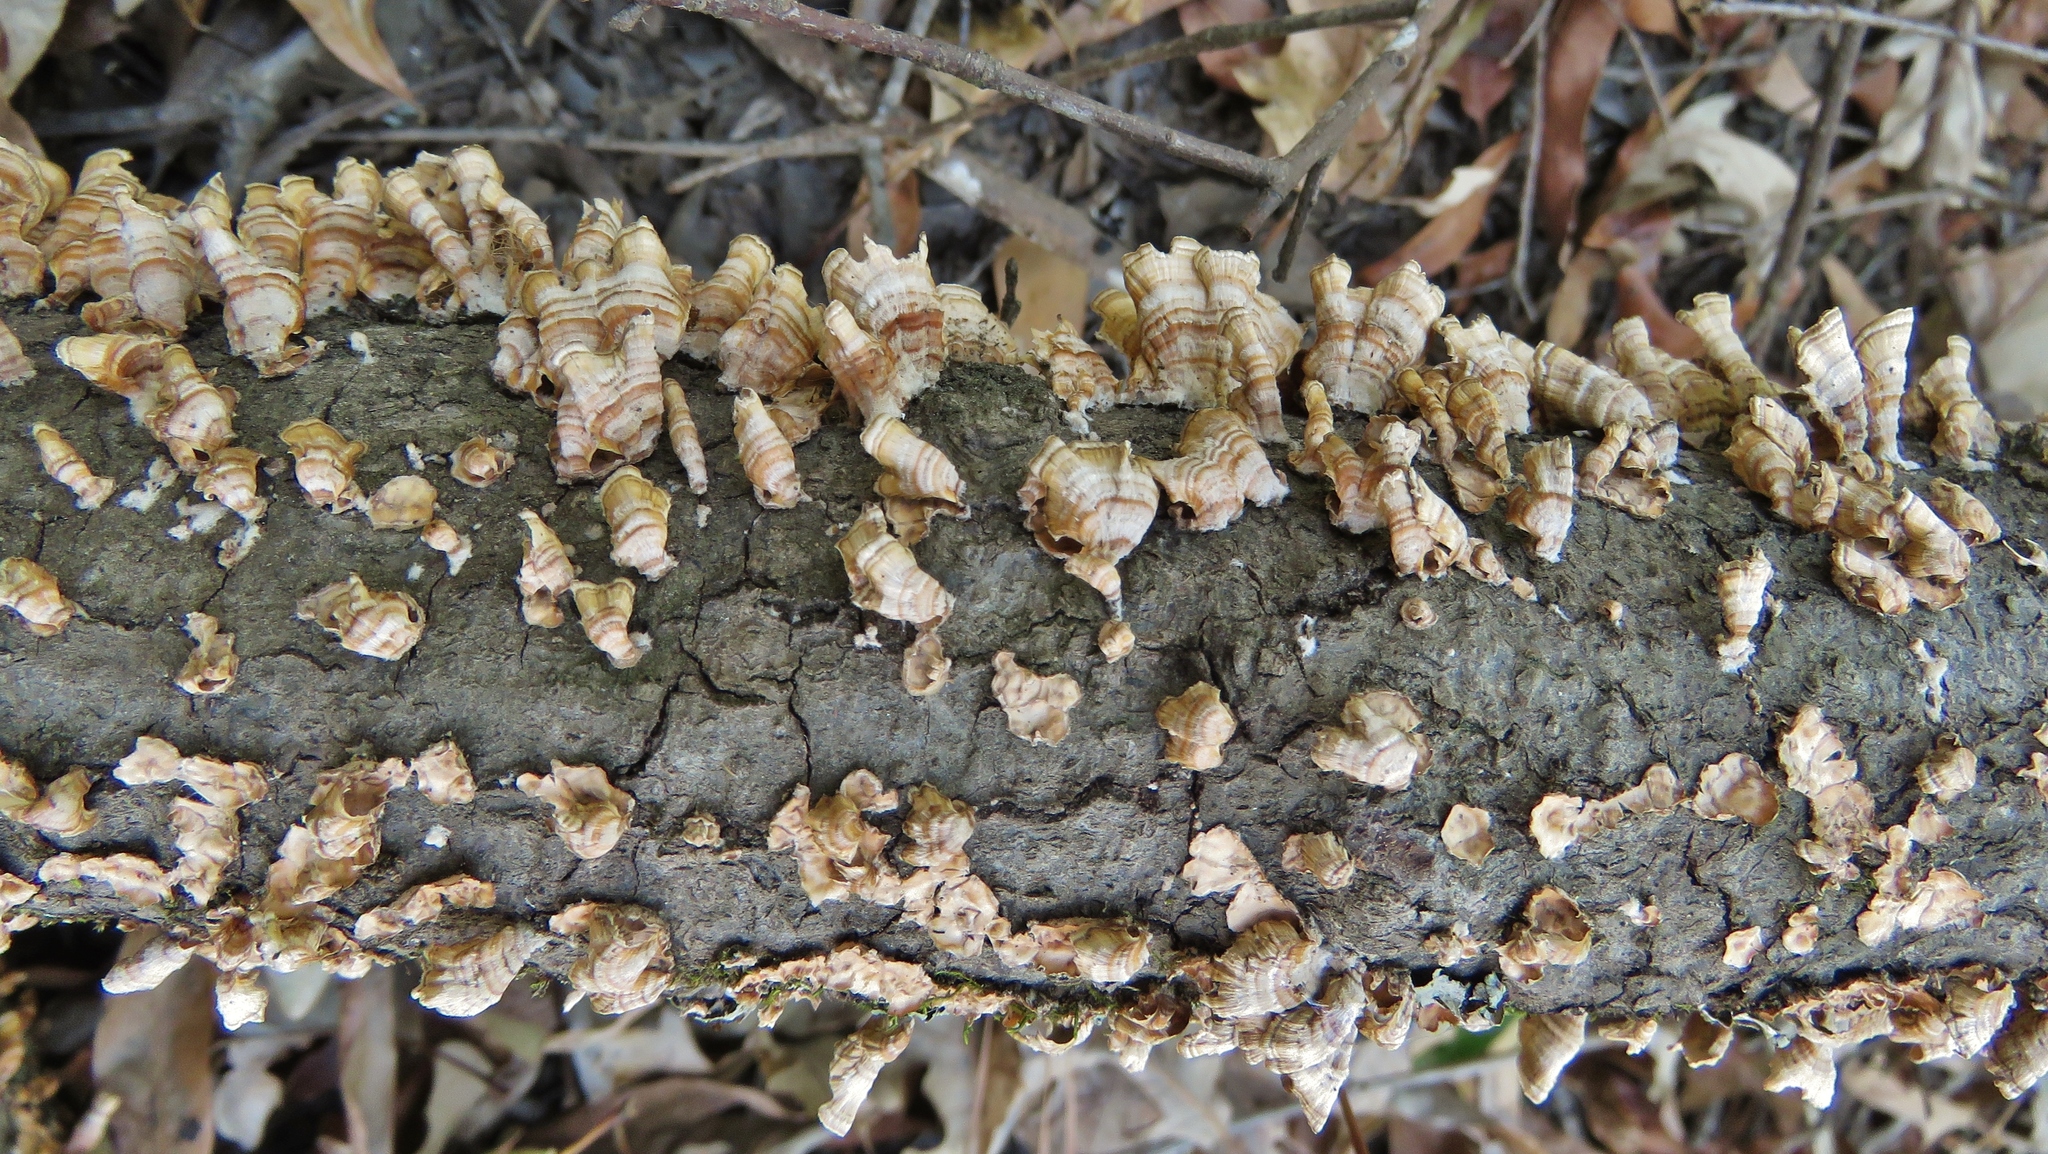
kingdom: Fungi
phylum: Basidiomycota
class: Agaricomycetes
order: Russulales
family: Stereaceae
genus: Stereum
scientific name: Stereum complicatum
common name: Crowded parchment
